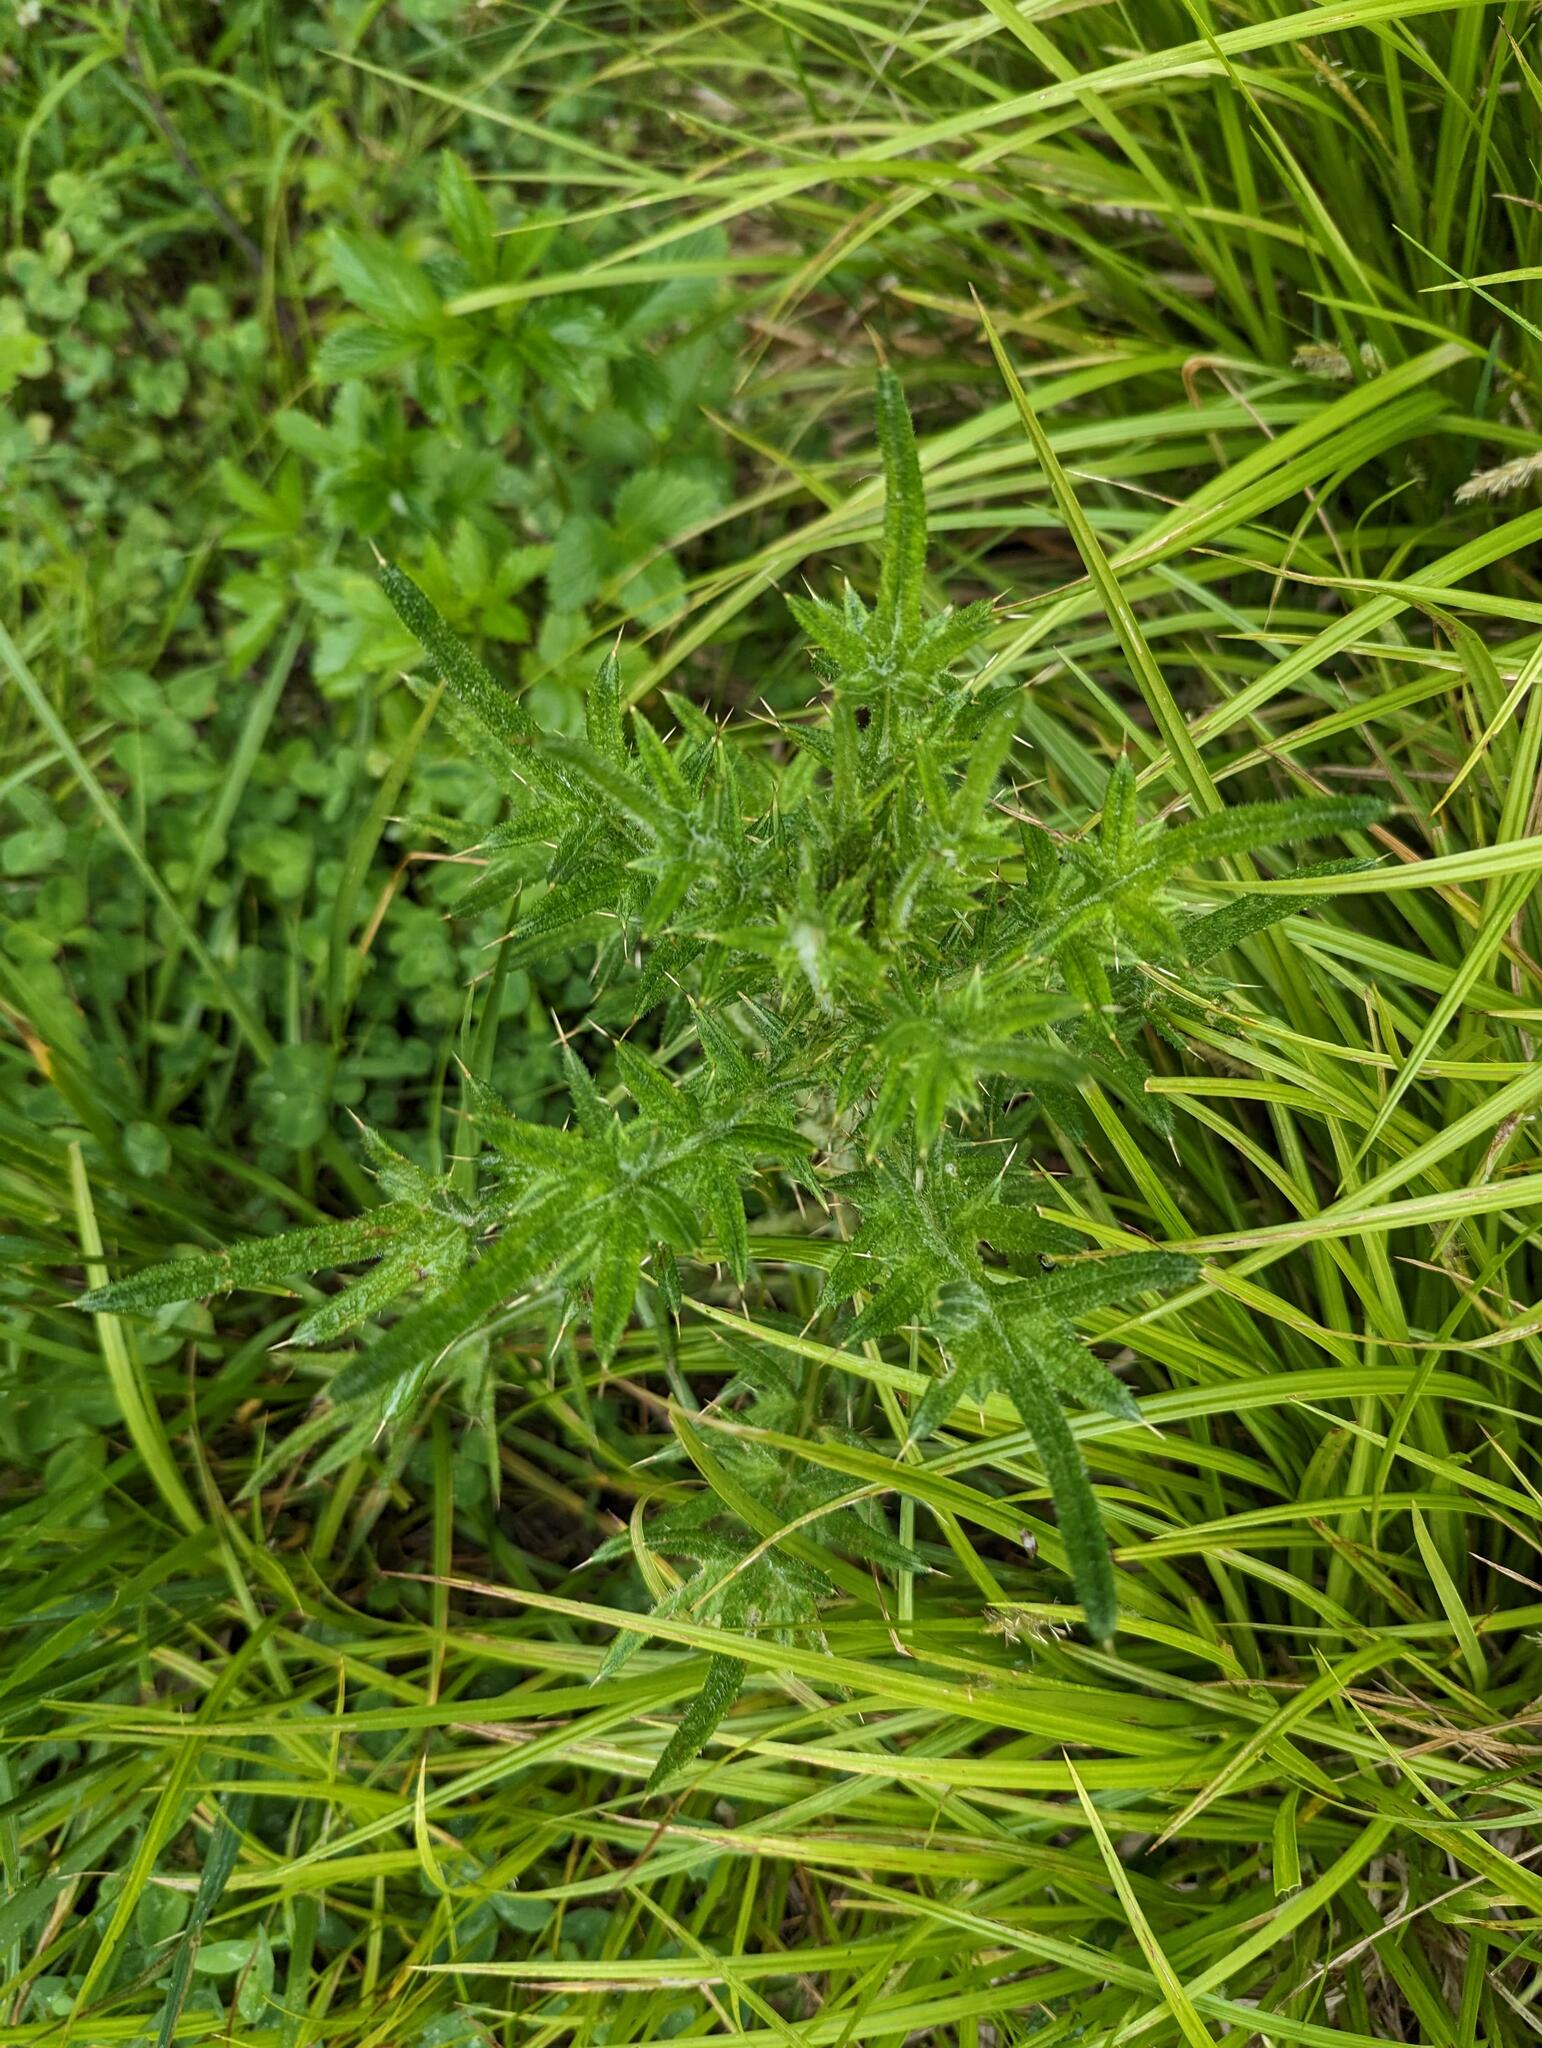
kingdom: Plantae
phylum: Tracheophyta
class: Magnoliopsida
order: Asterales
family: Asteraceae
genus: Cirsium
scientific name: Cirsium vulgare
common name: Bull thistle
